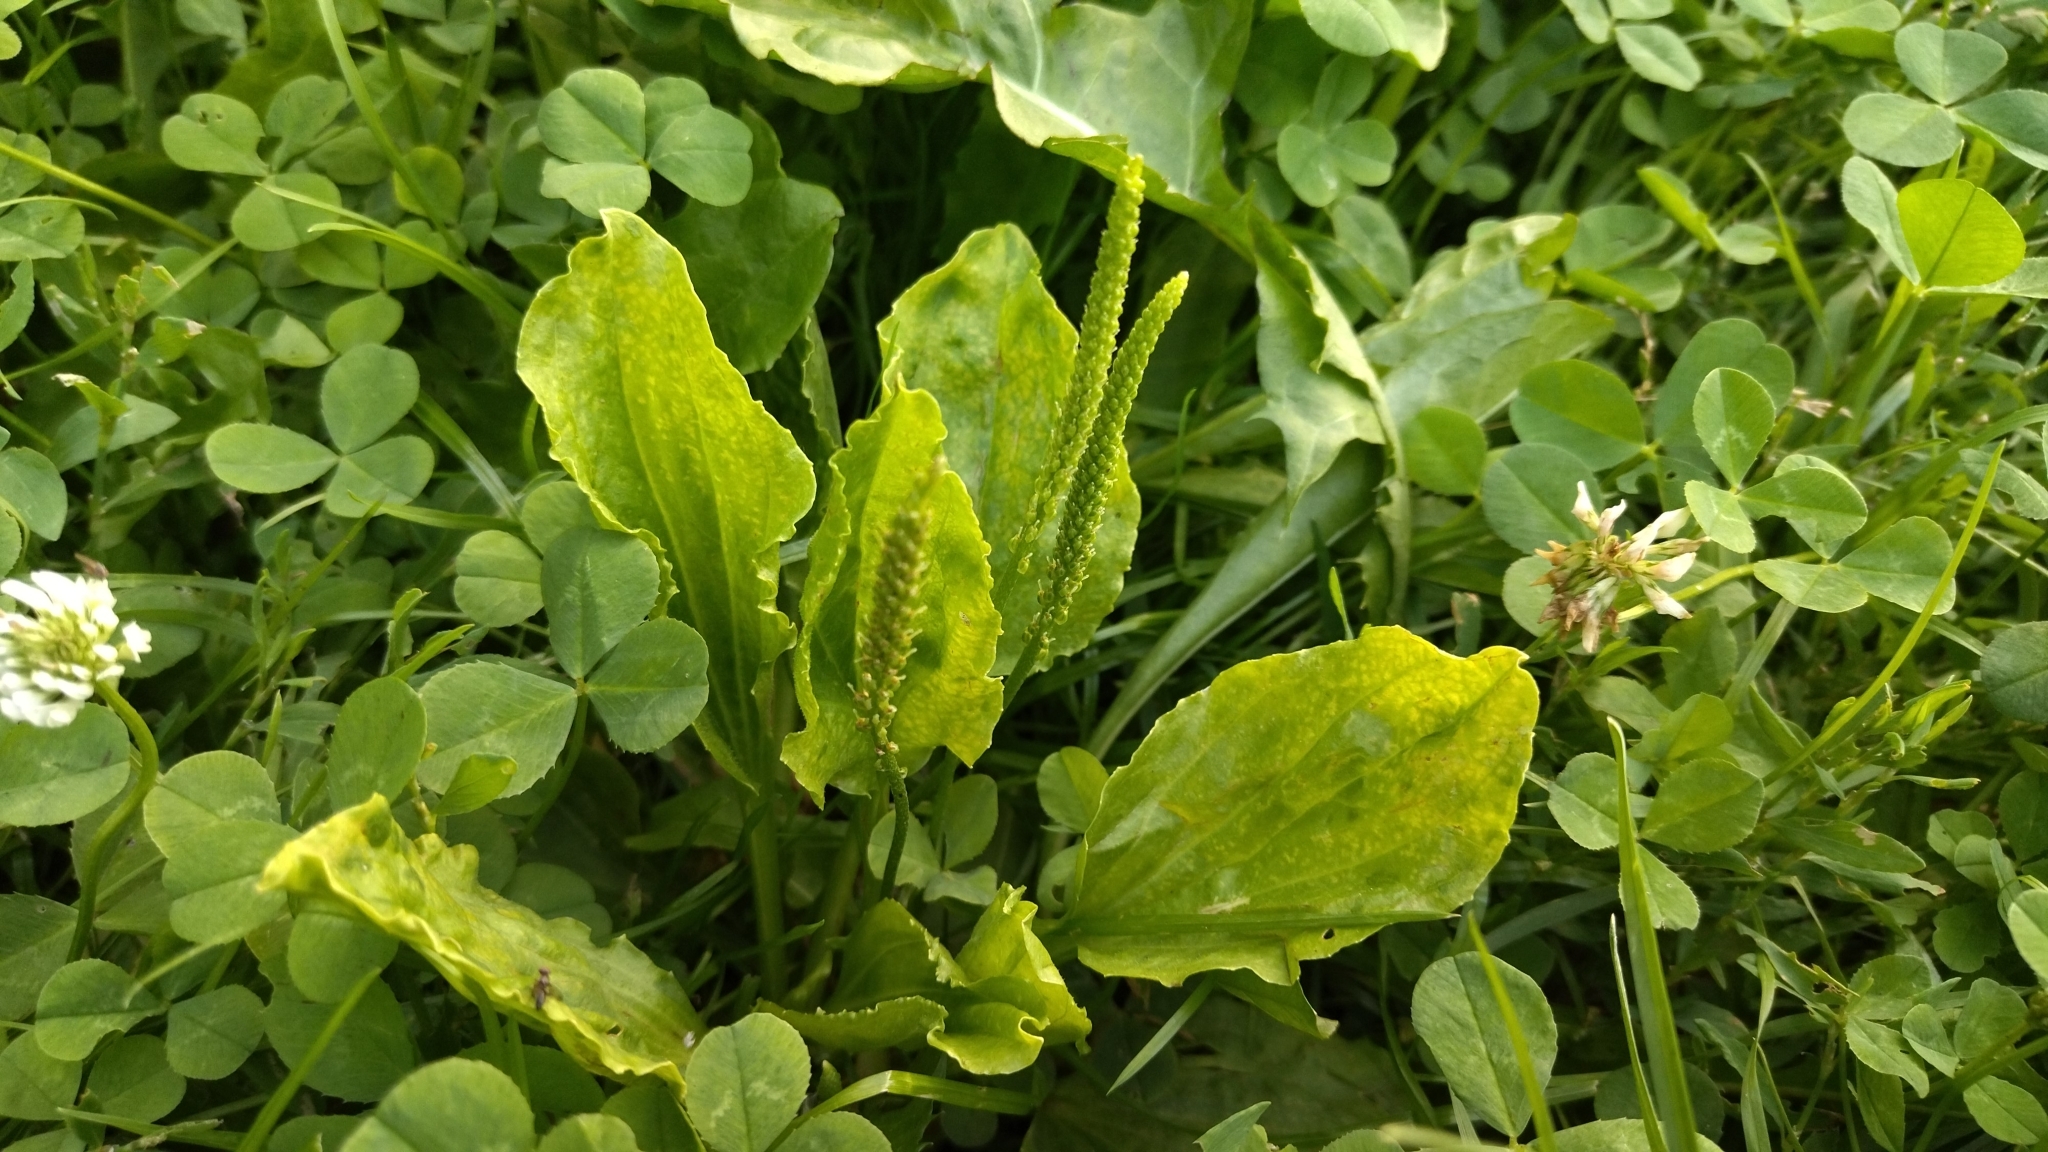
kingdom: Plantae
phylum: Tracheophyta
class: Magnoliopsida
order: Lamiales
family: Plantaginaceae
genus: Plantago
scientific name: Plantago major
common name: Common plantain
